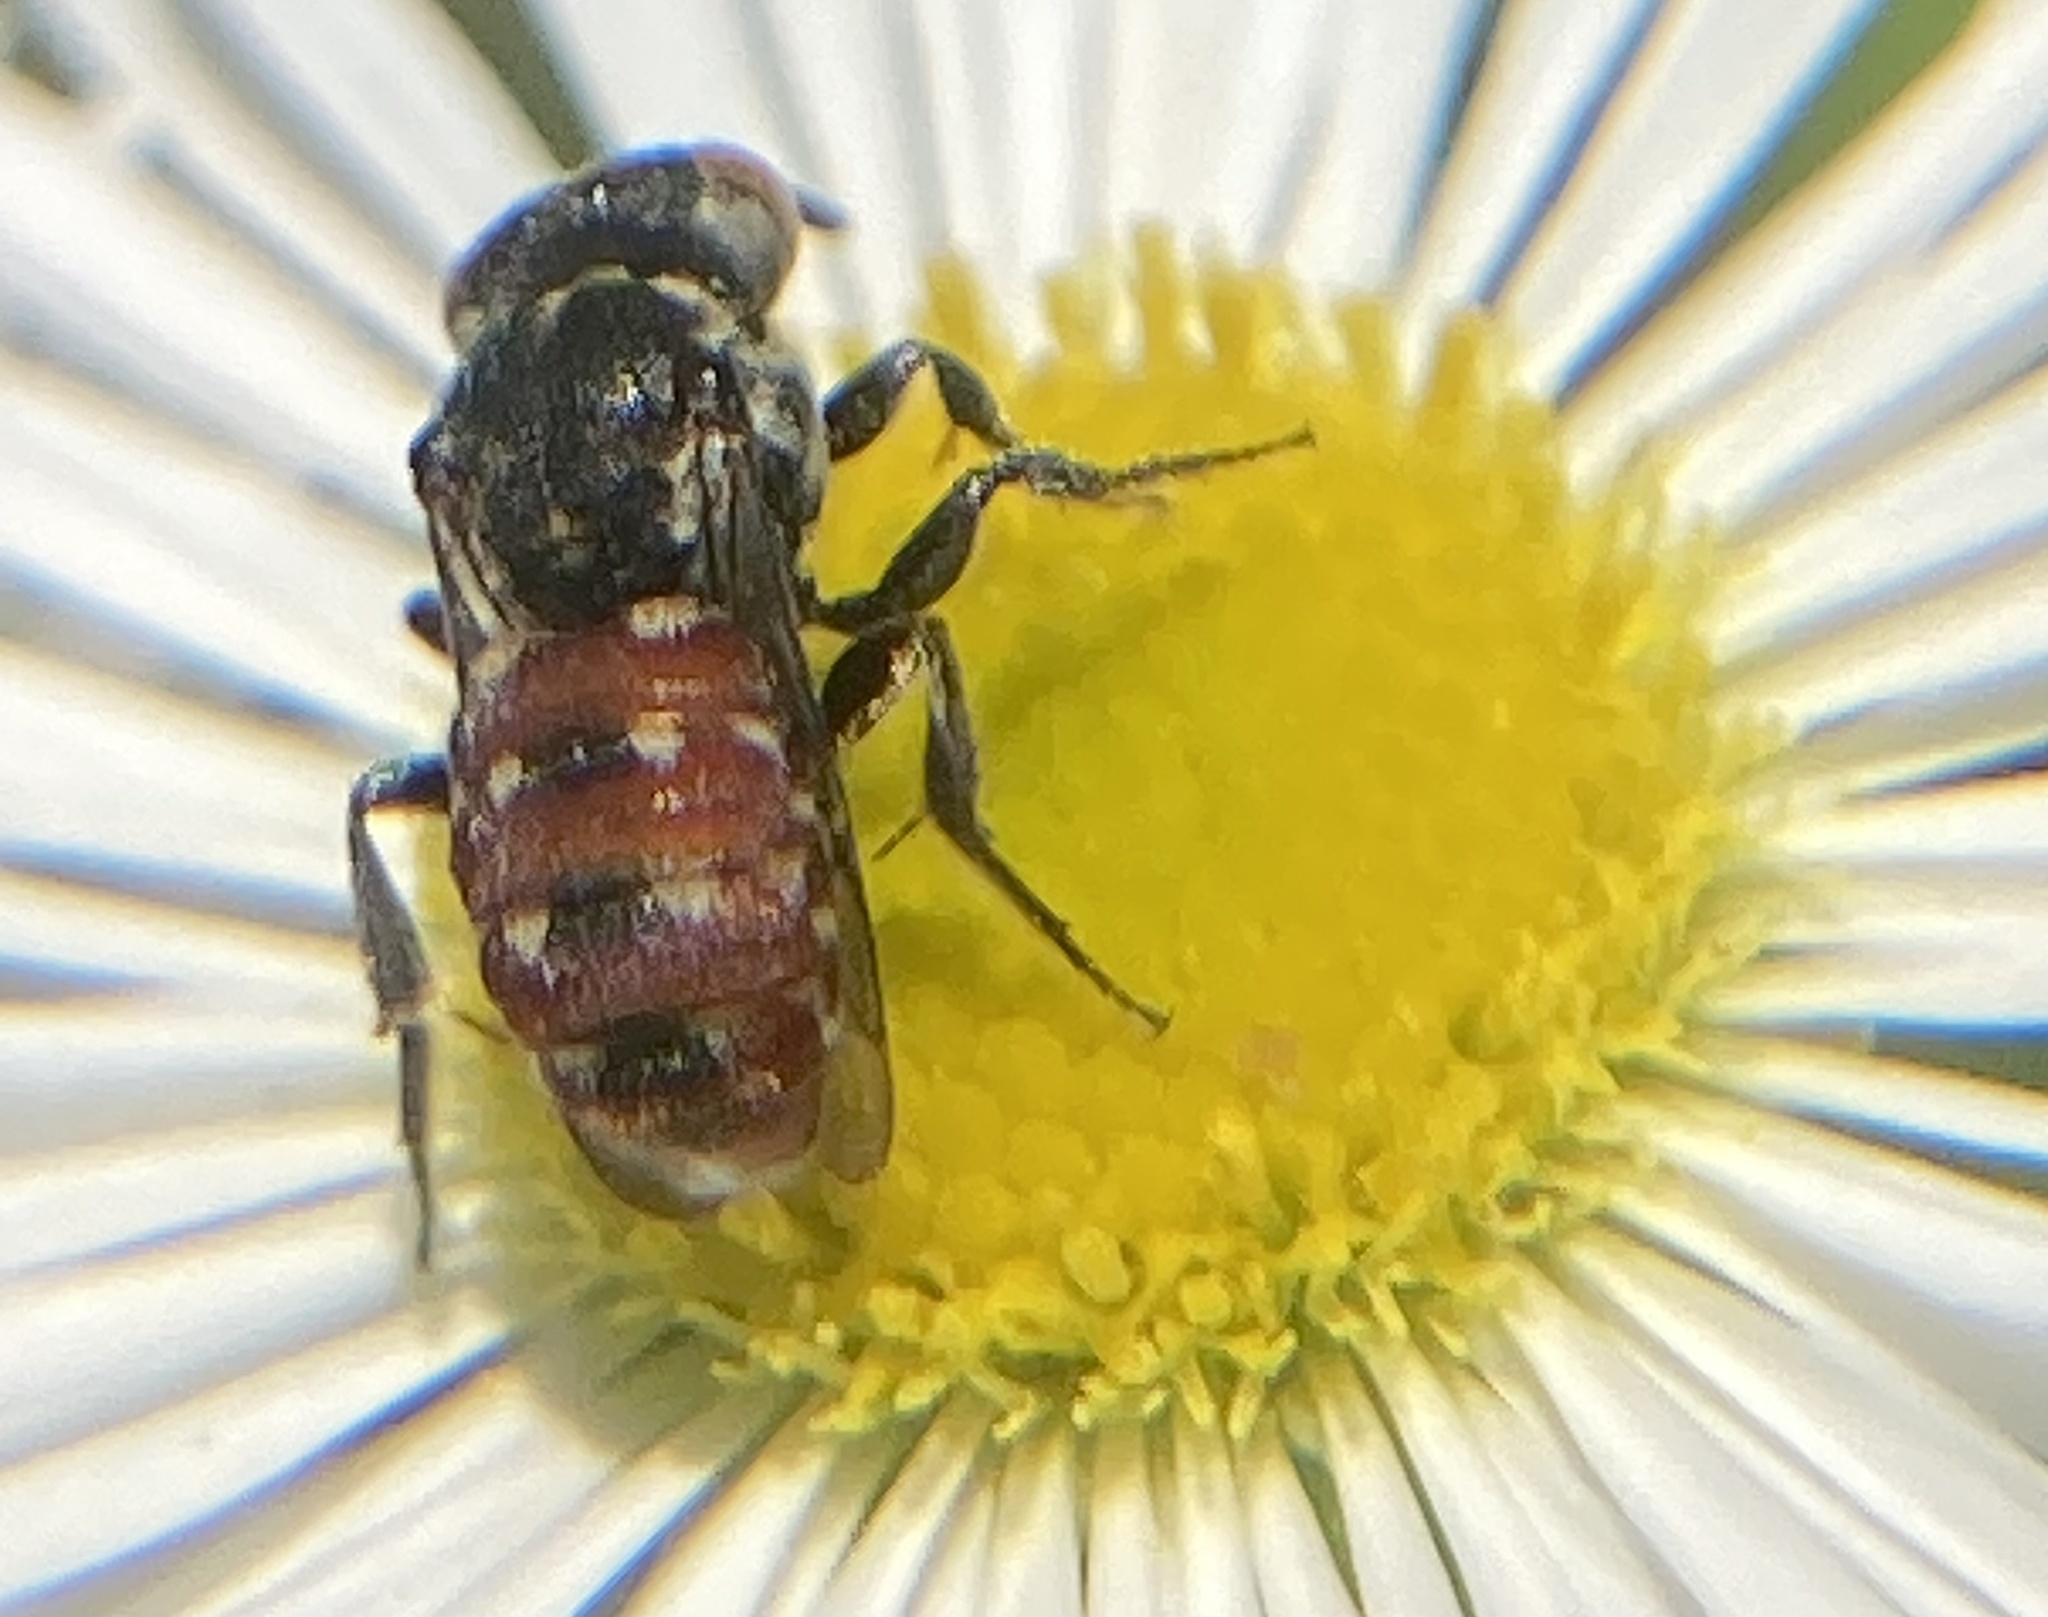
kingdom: Animalia
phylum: Arthropoda
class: Insecta
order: Hymenoptera
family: Apidae
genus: Holcopasites
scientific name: Holcopasites calliopsidis
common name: Calliopsis cuckoo nomad bee
